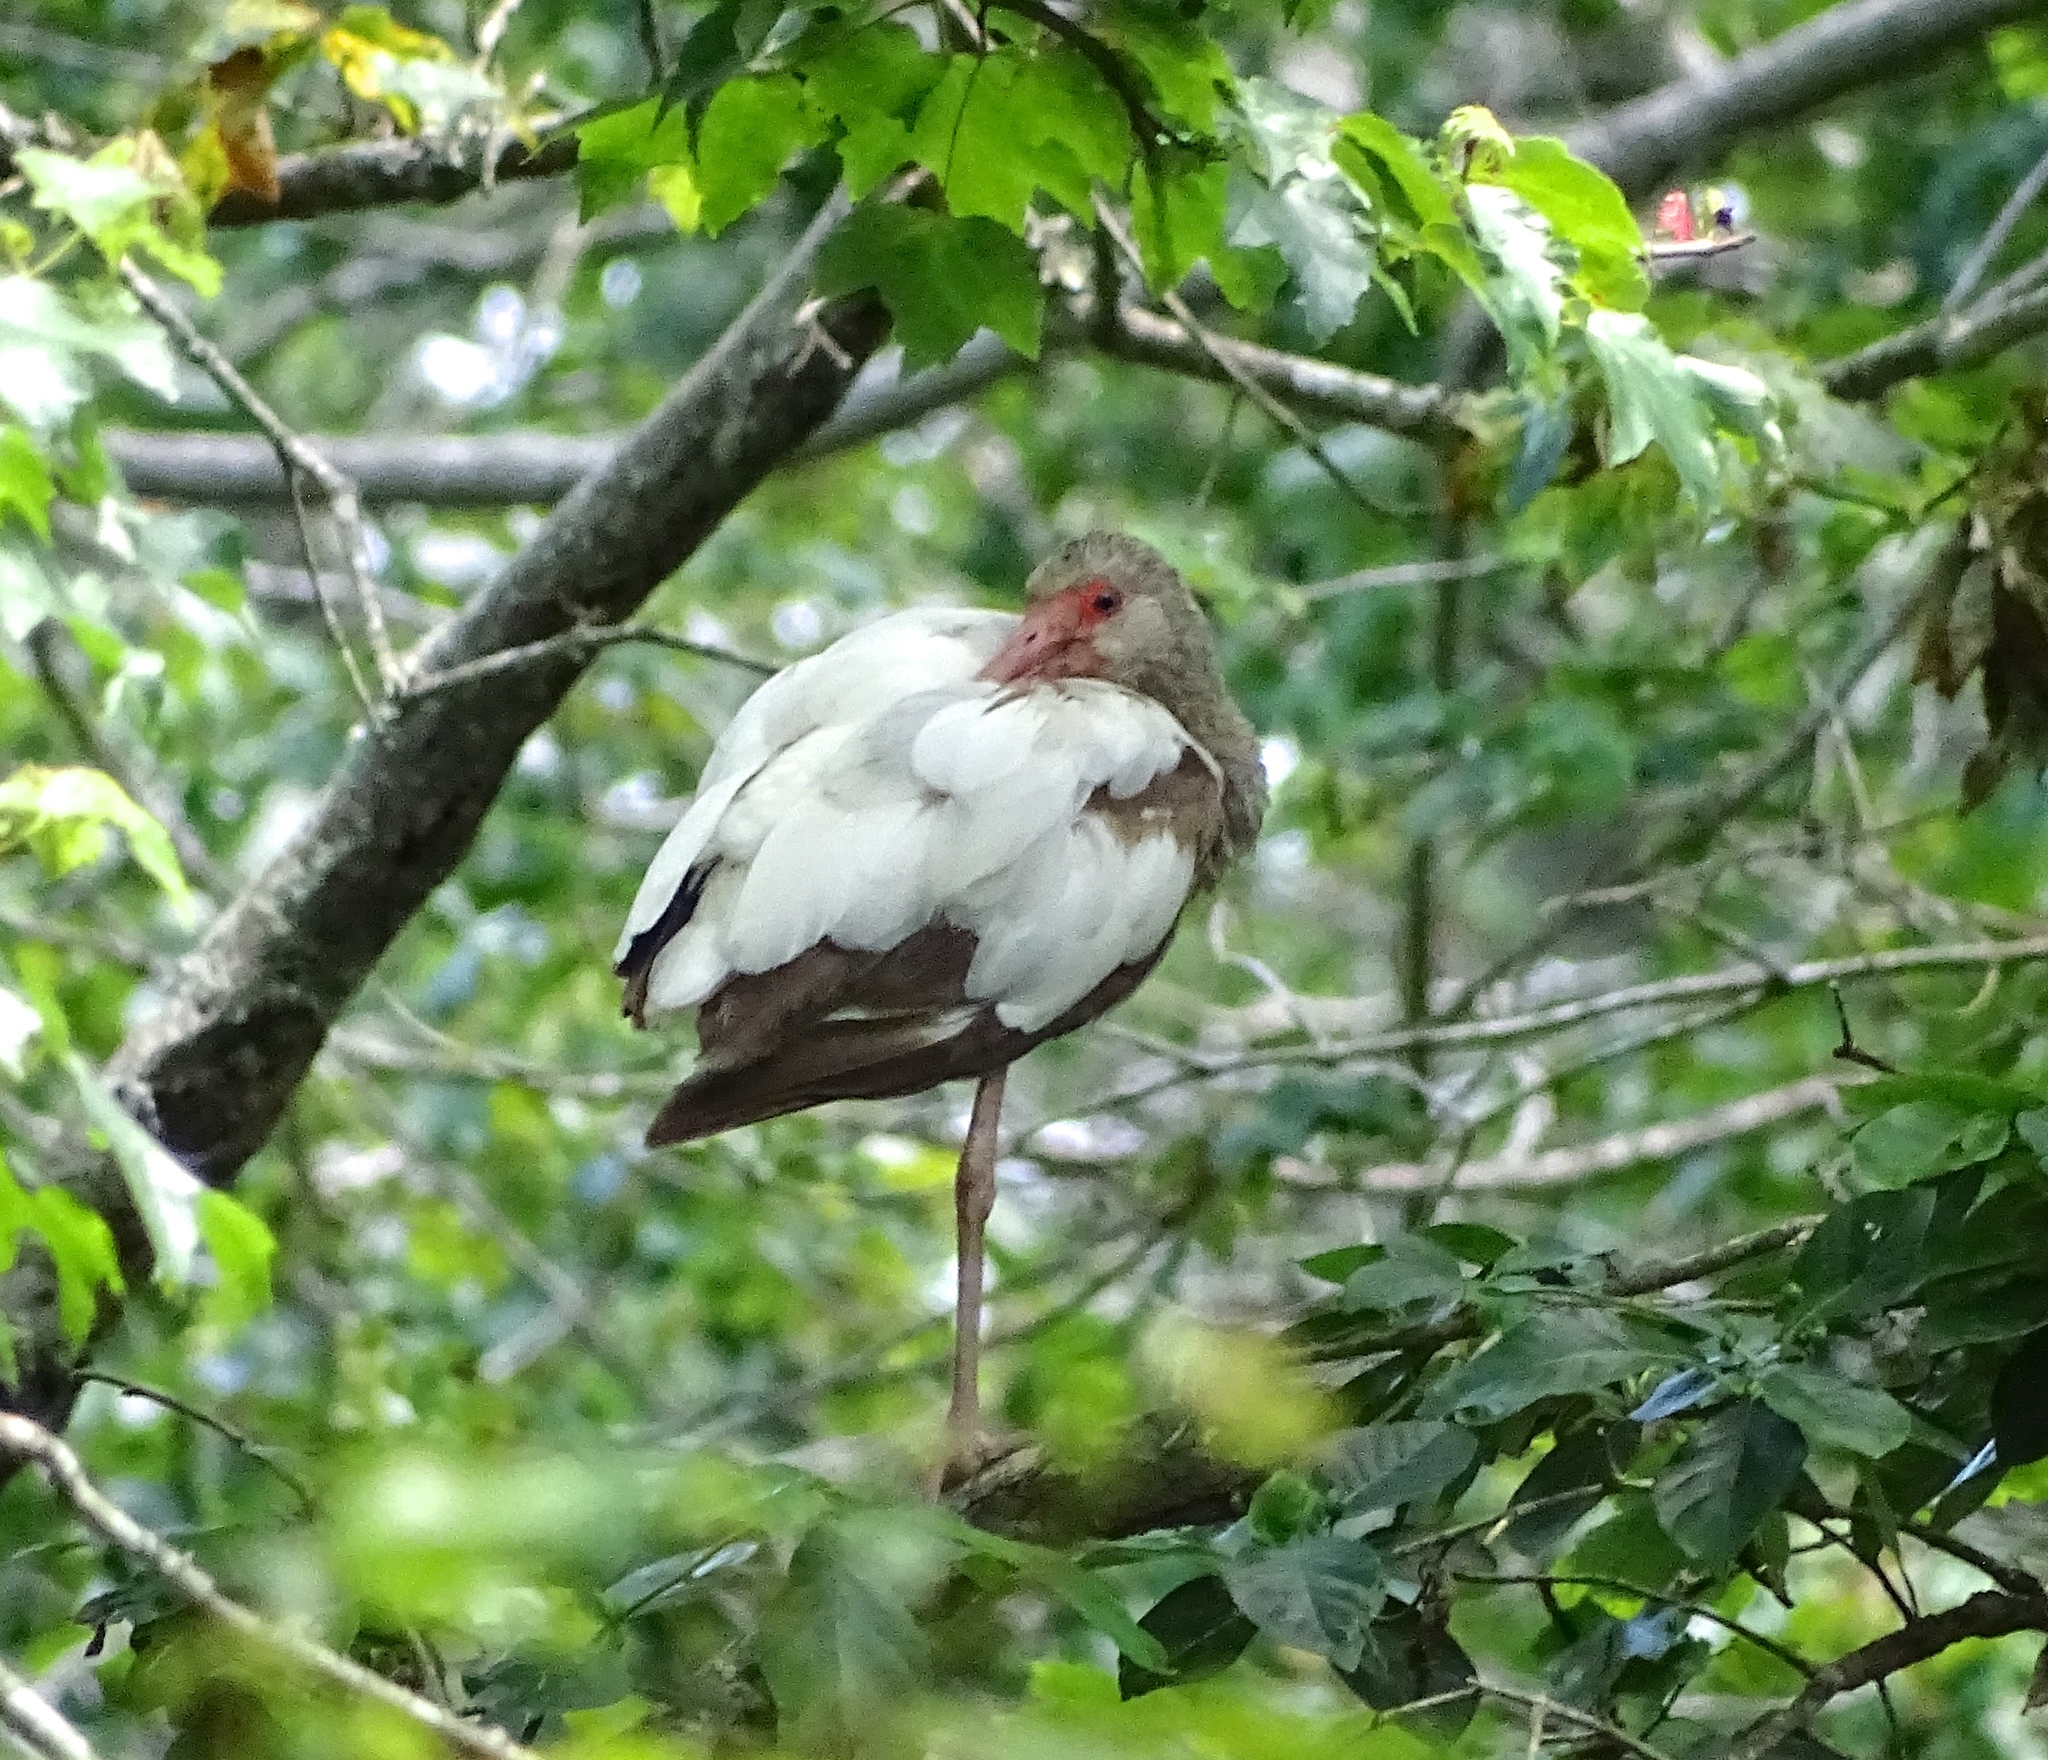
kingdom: Animalia
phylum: Chordata
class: Aves
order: Pelecaniformes
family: Threskiornithidae
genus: Eudocimus
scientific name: Eudocimus albus
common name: White ibis
